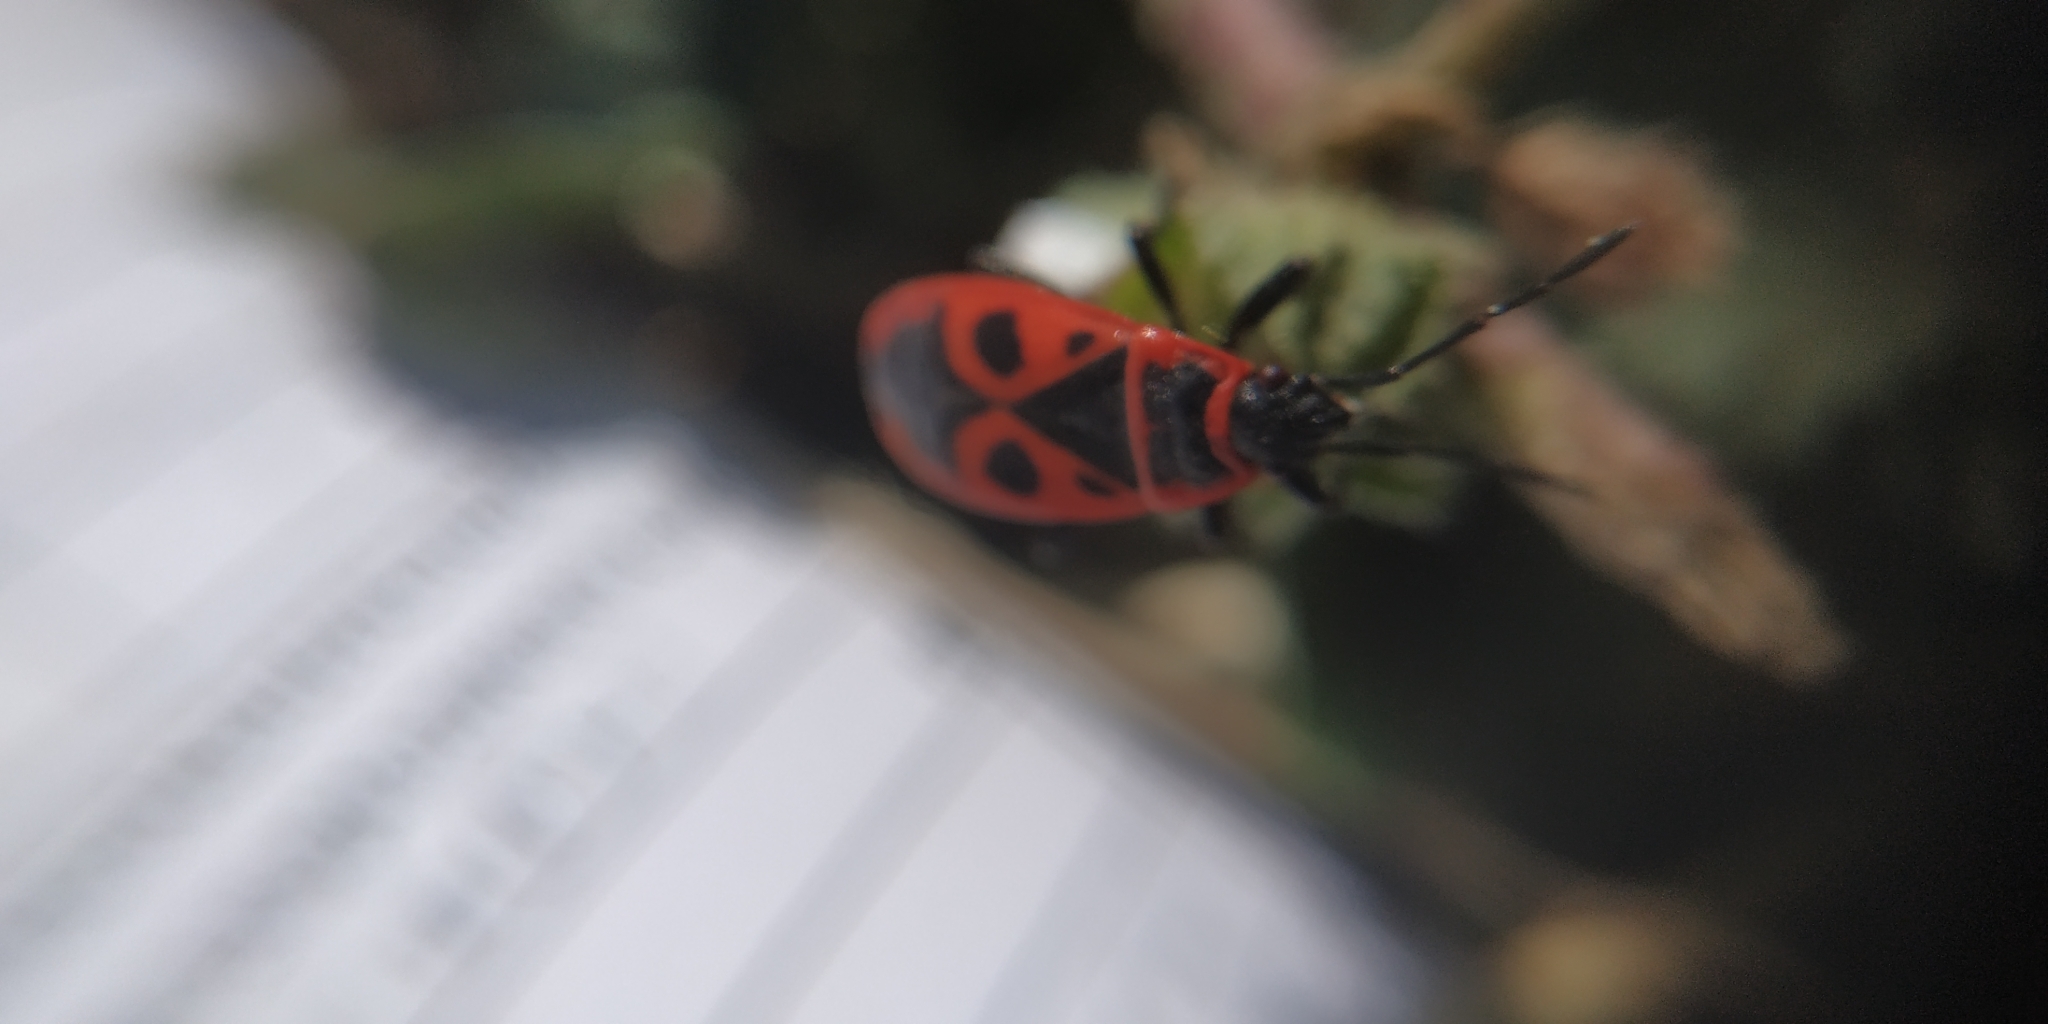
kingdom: Animalia
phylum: Arthropoda
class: Insecta
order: Hemiptera
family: Pyrrhocoridae
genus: Pyrrhocoris
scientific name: Pyrrhocoris apterus
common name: Firebug
